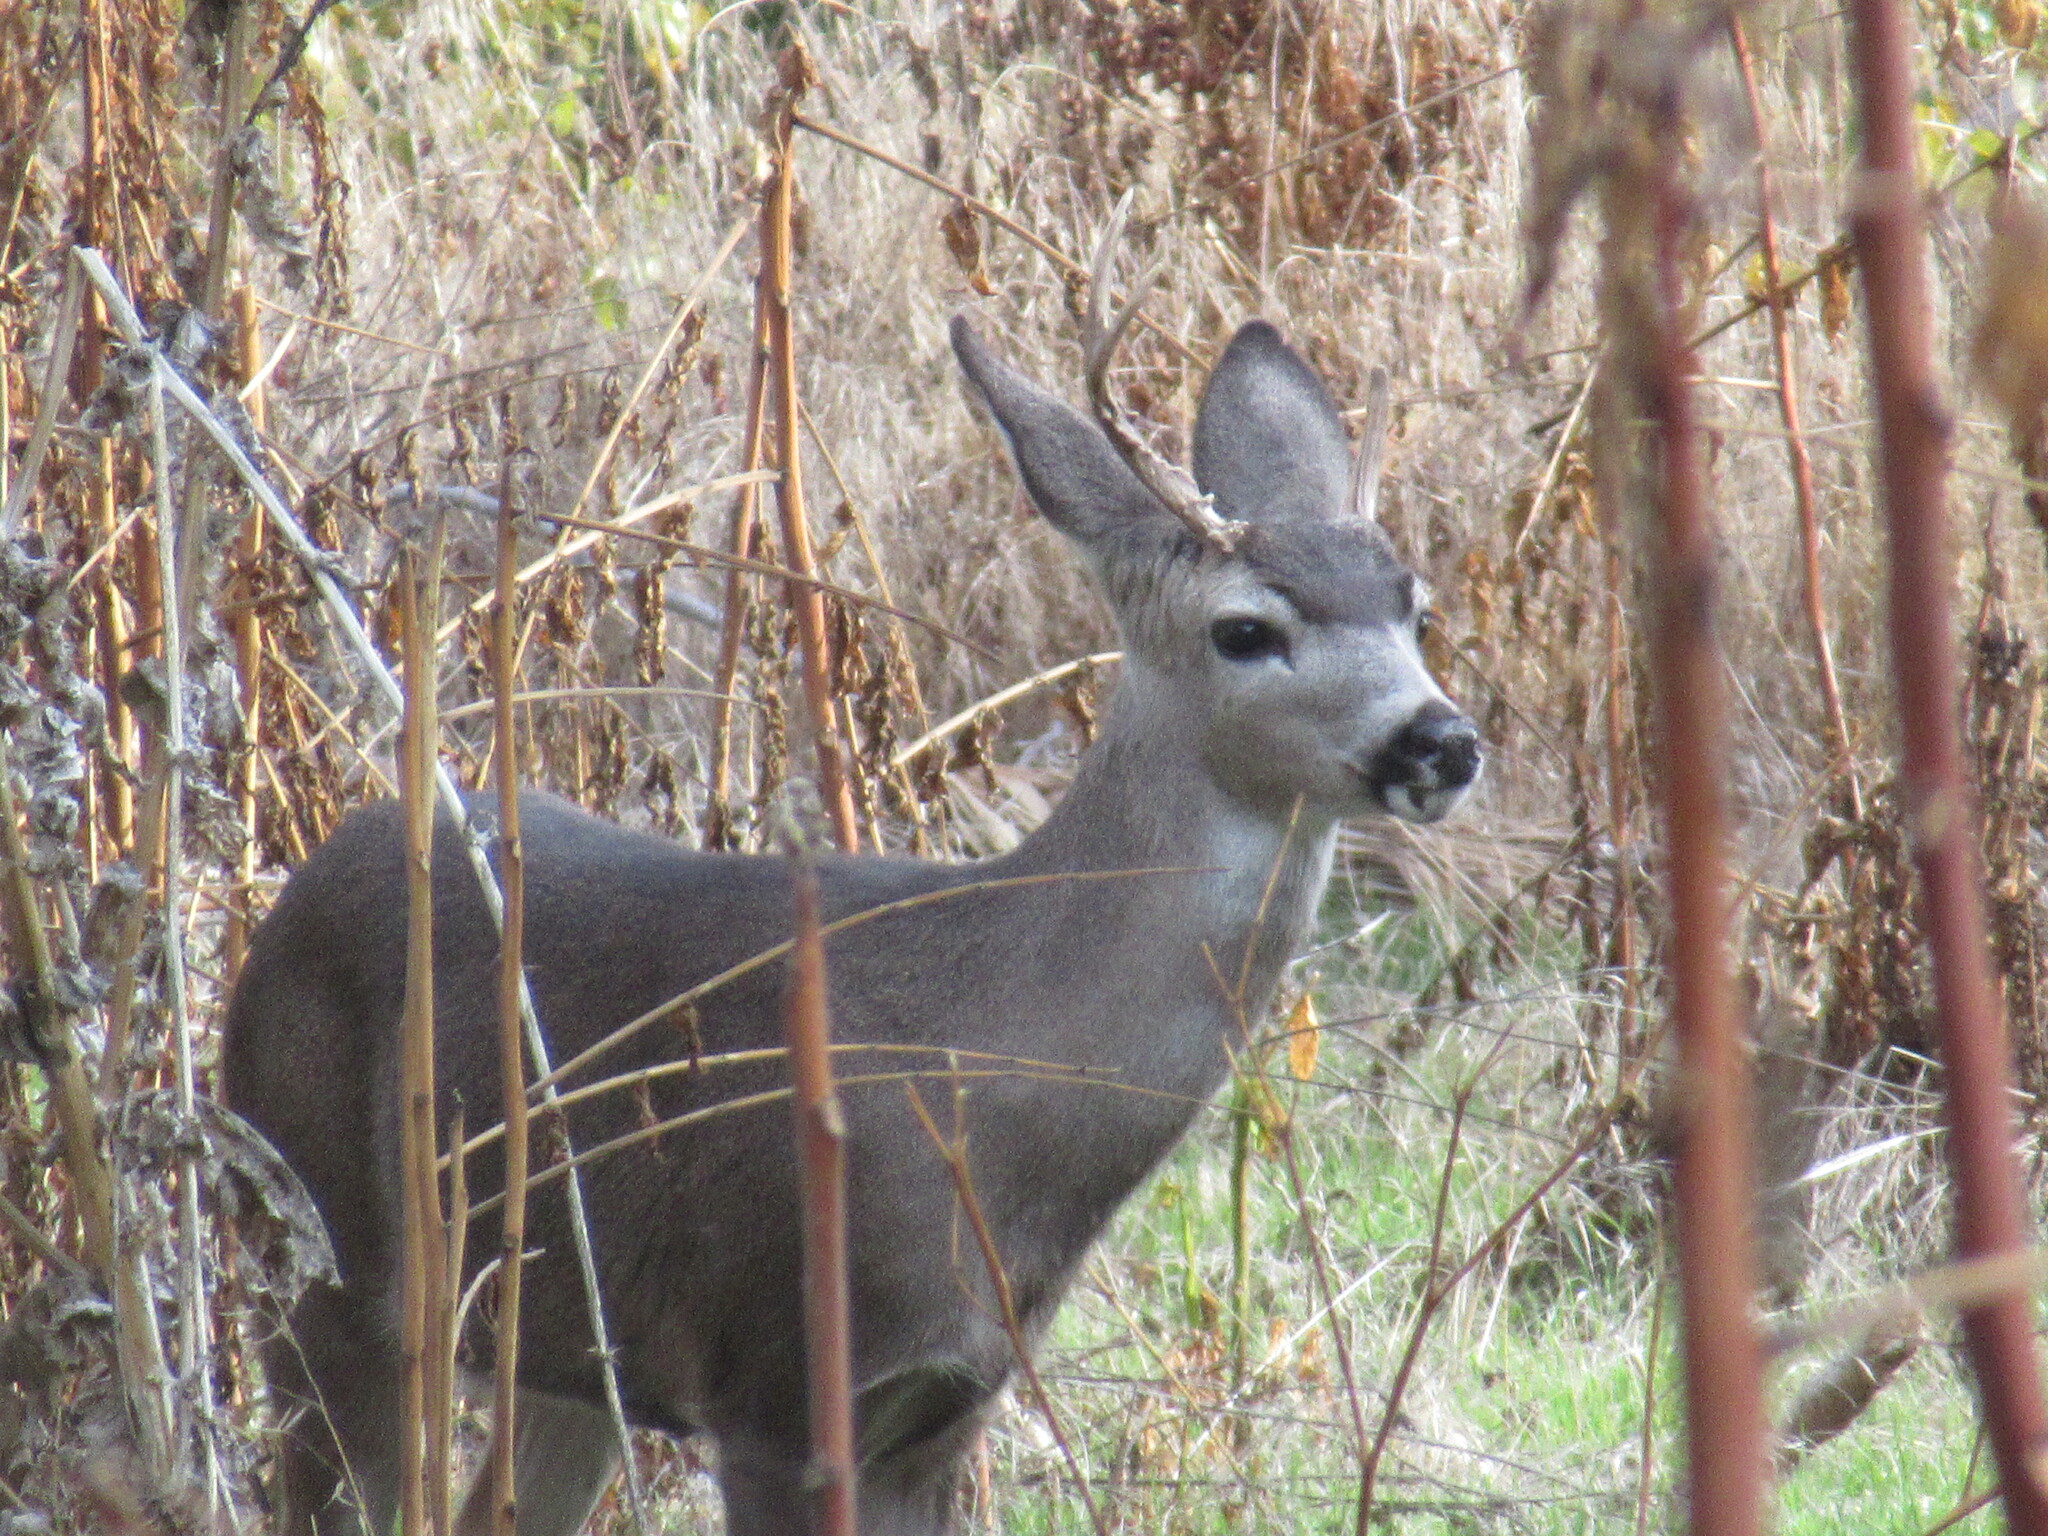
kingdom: Animalia
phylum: Chordata
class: Mammalia
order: Artiodactyla
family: Cervidae
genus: Odocoileus
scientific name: Odocoileus hemionus
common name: Mule deer
